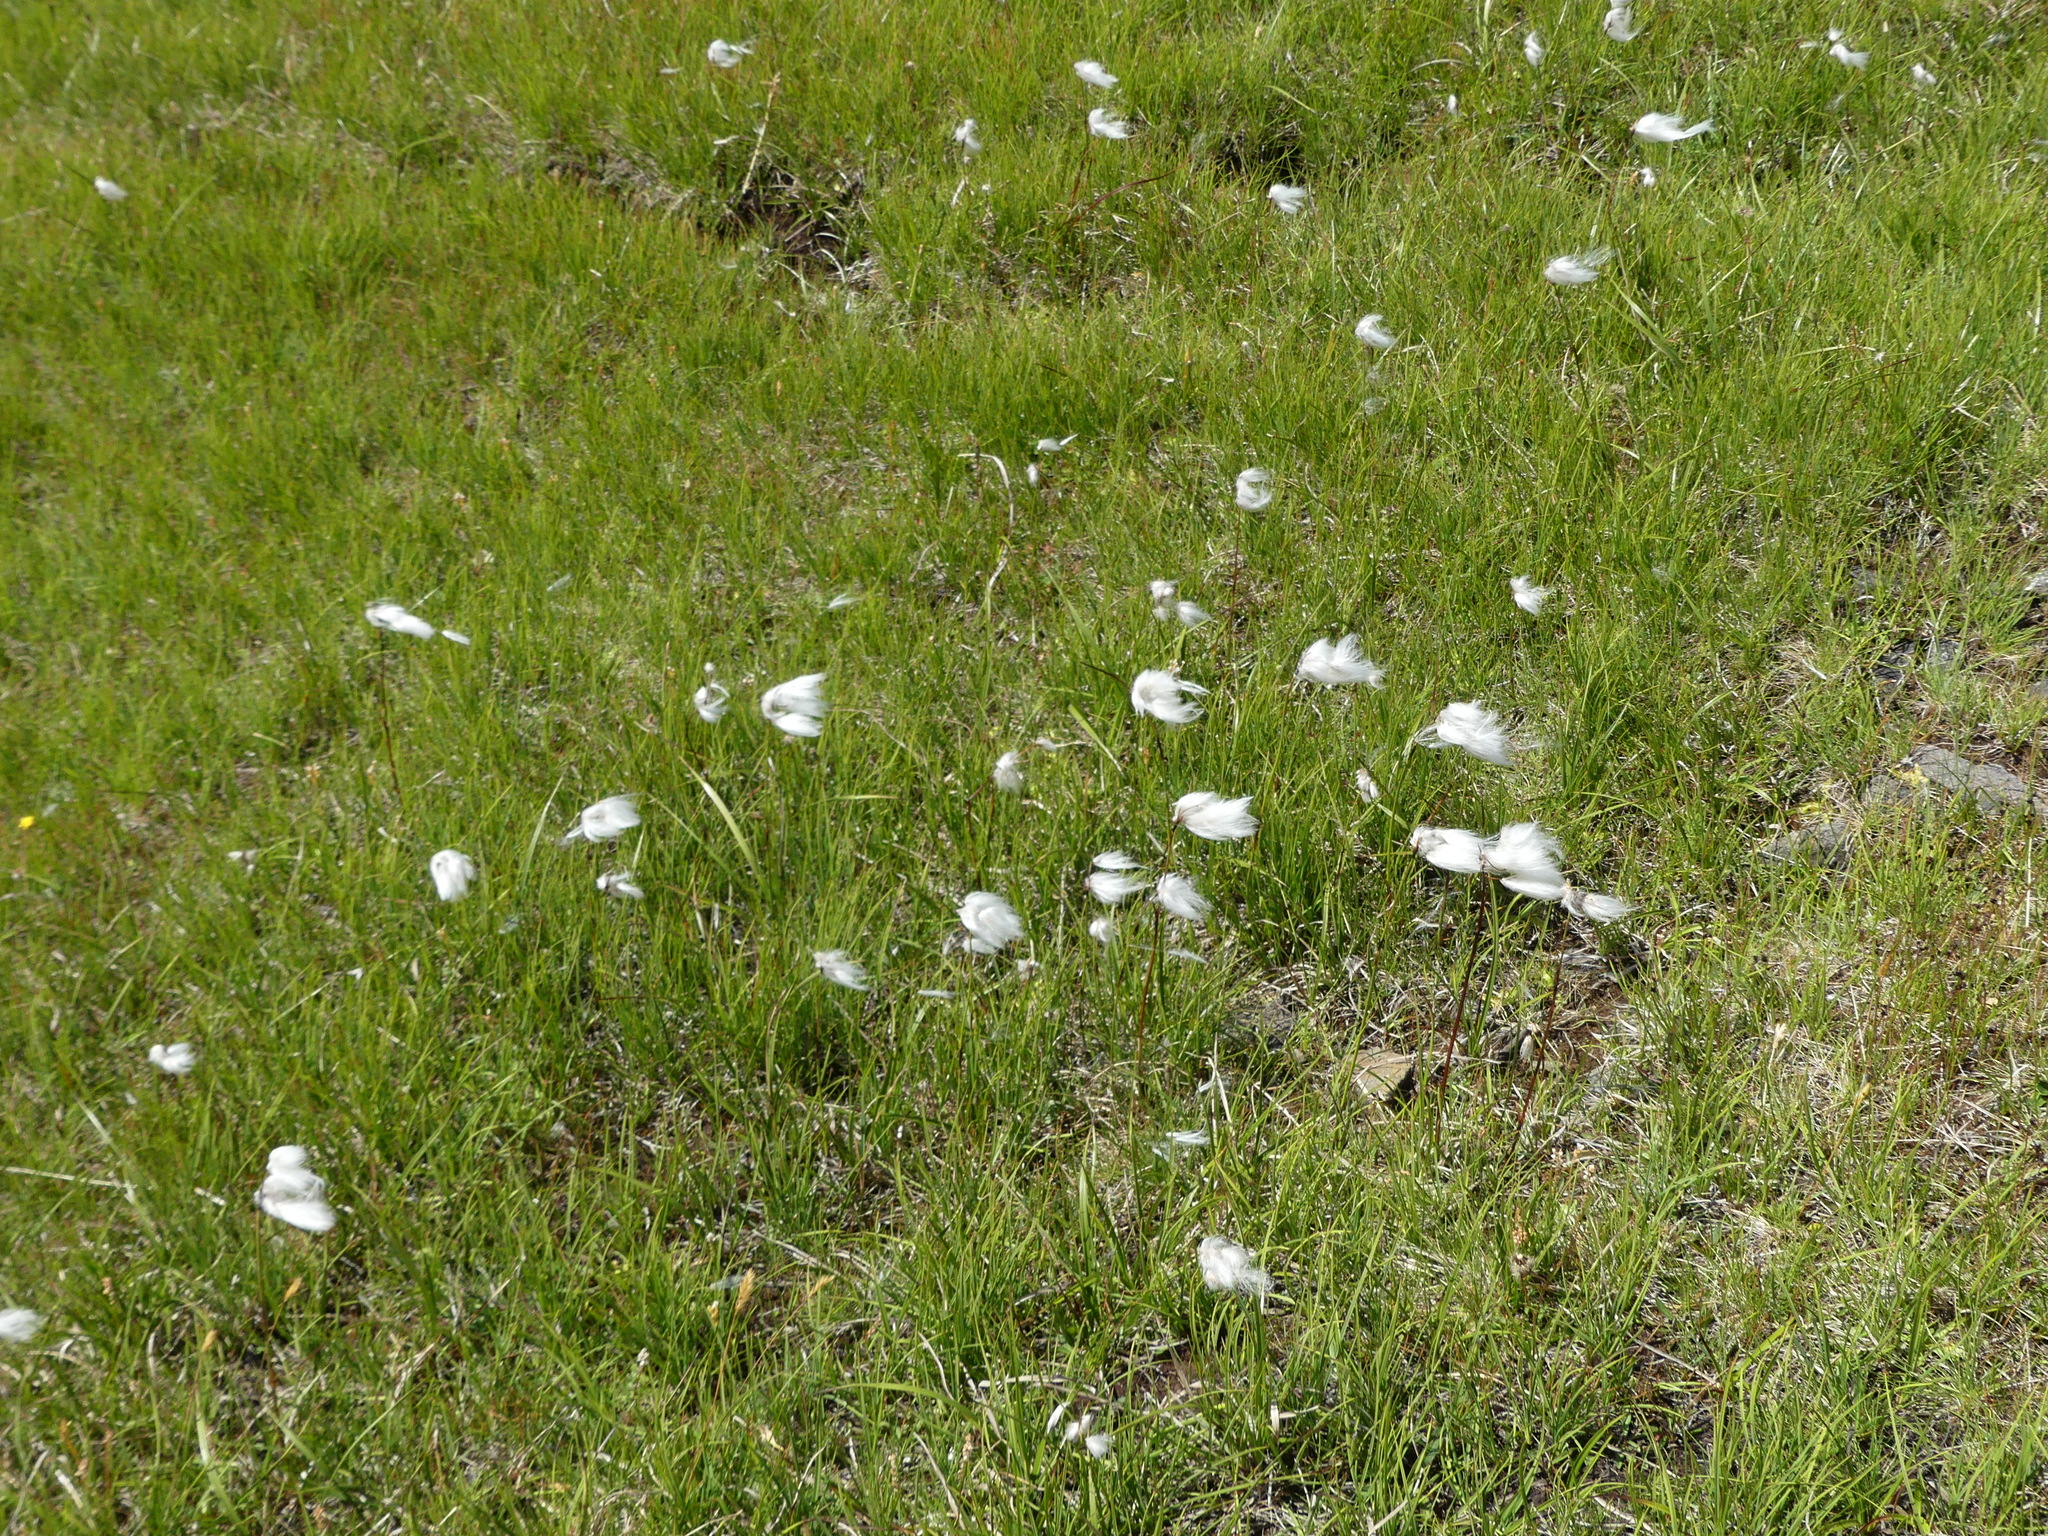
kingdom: Plantae
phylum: Tracheophyta
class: Liliopsida
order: Poales
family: Cyperaceae
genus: Eriophorum
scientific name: Eriophorum scheuchzeri
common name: Scheuchzer's cottongrass
